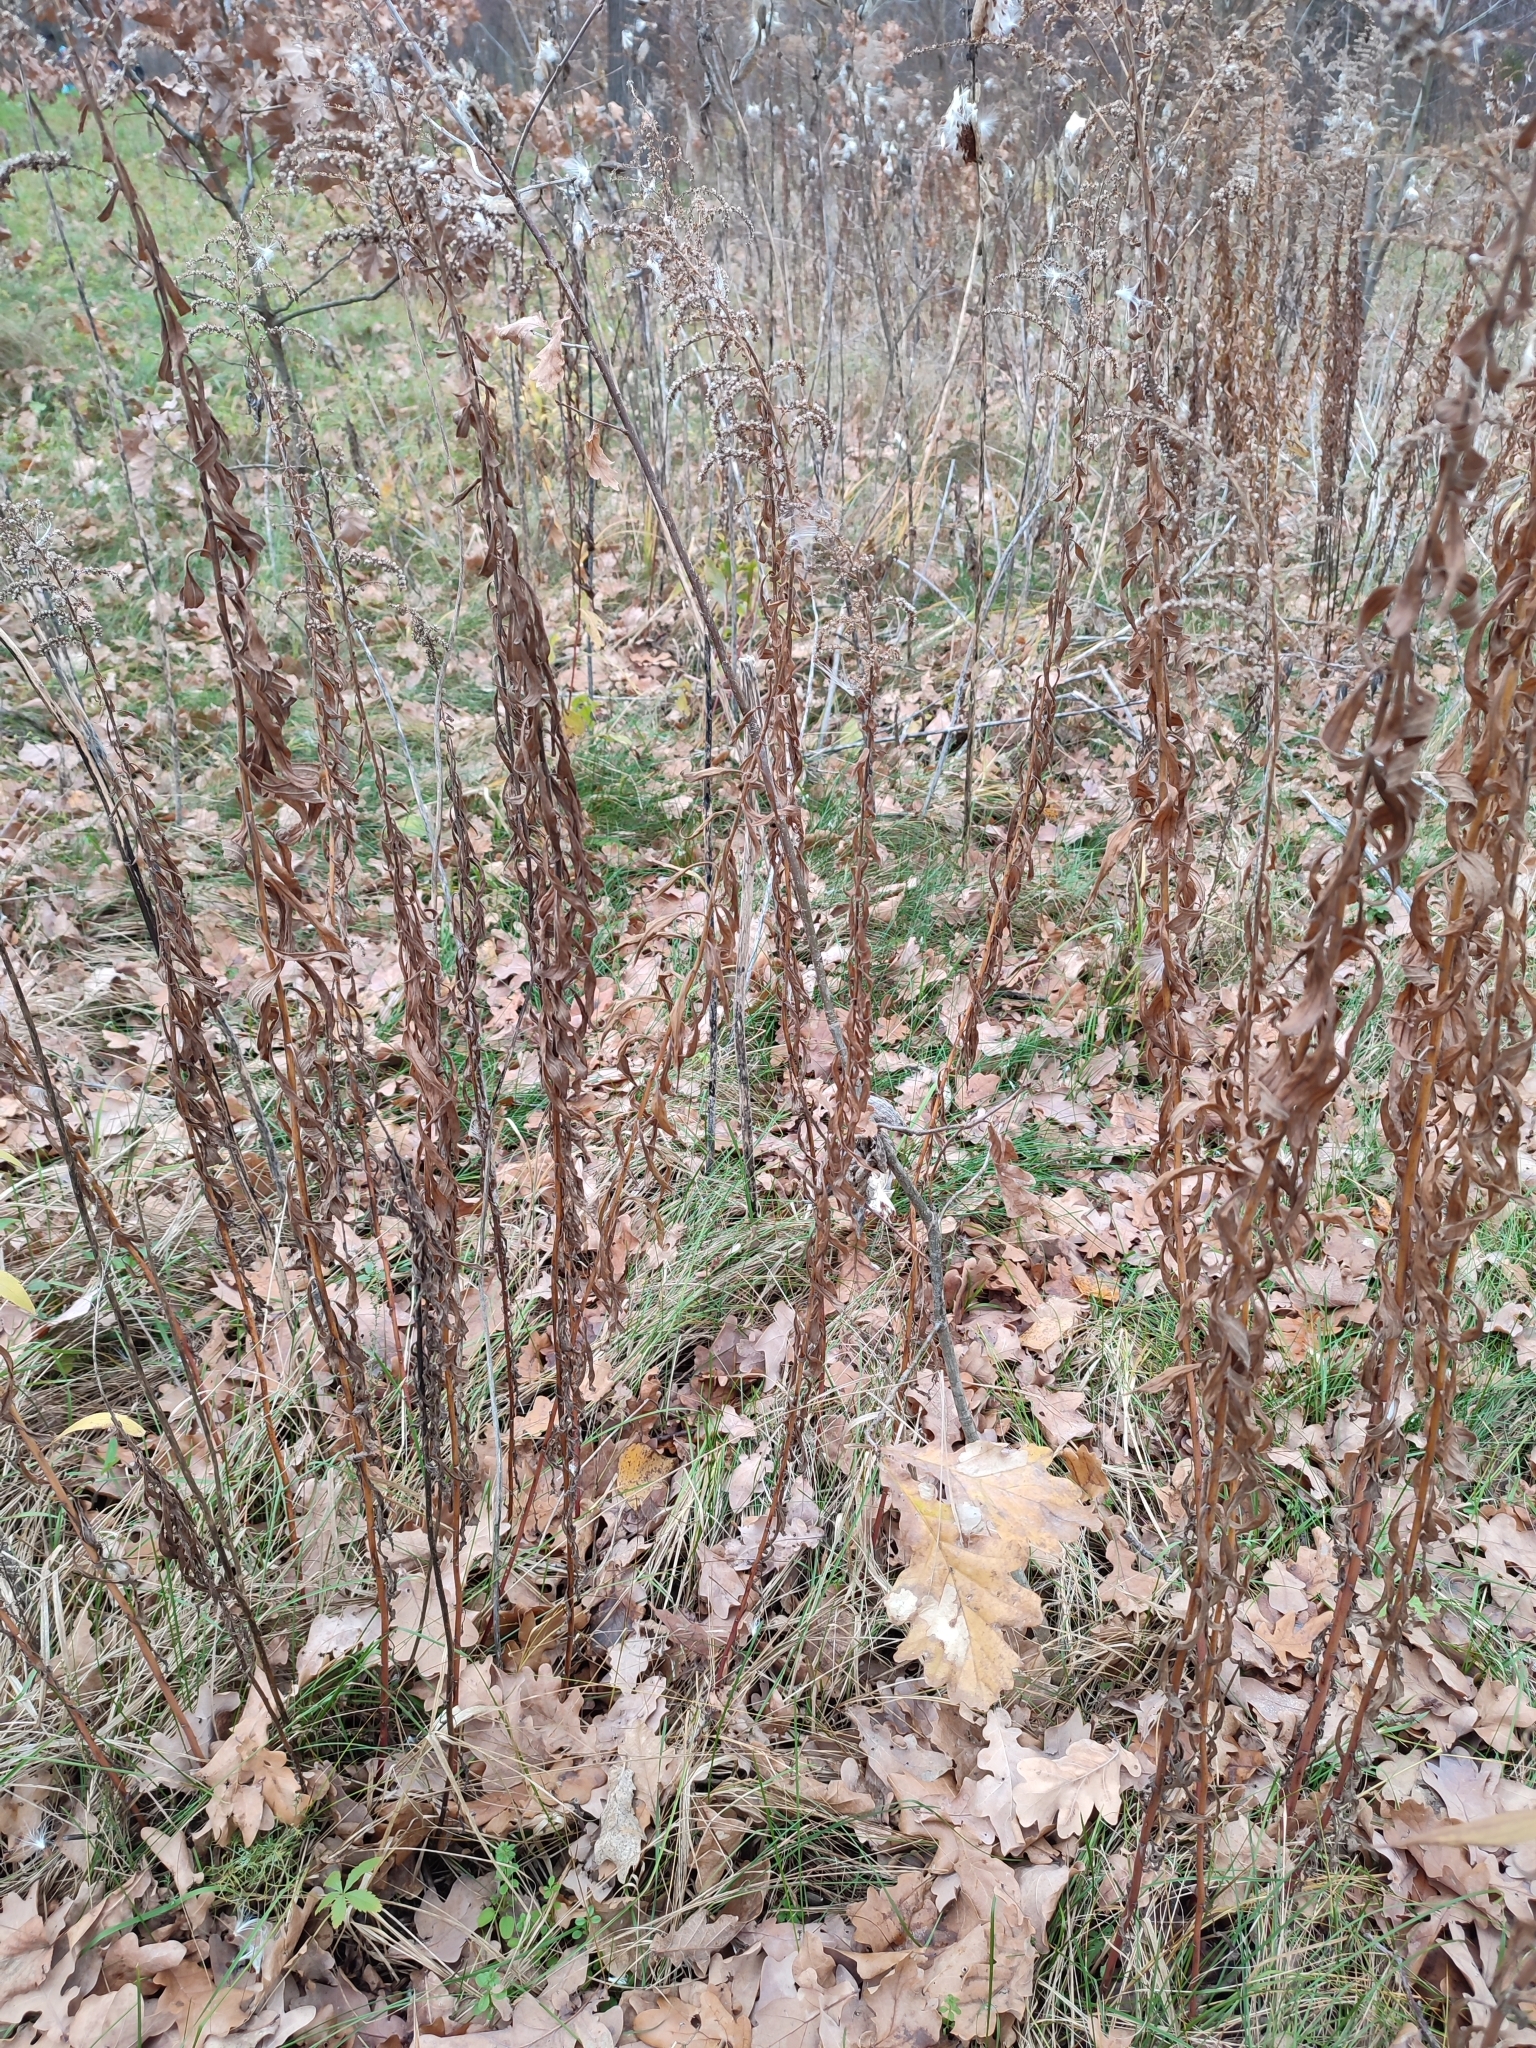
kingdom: Plantae
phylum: Tracheophyta
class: Magnoliopsida
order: Fagales
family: Fagaceae
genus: Quercus
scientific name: Quercus robur
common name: Pedunculate oak
